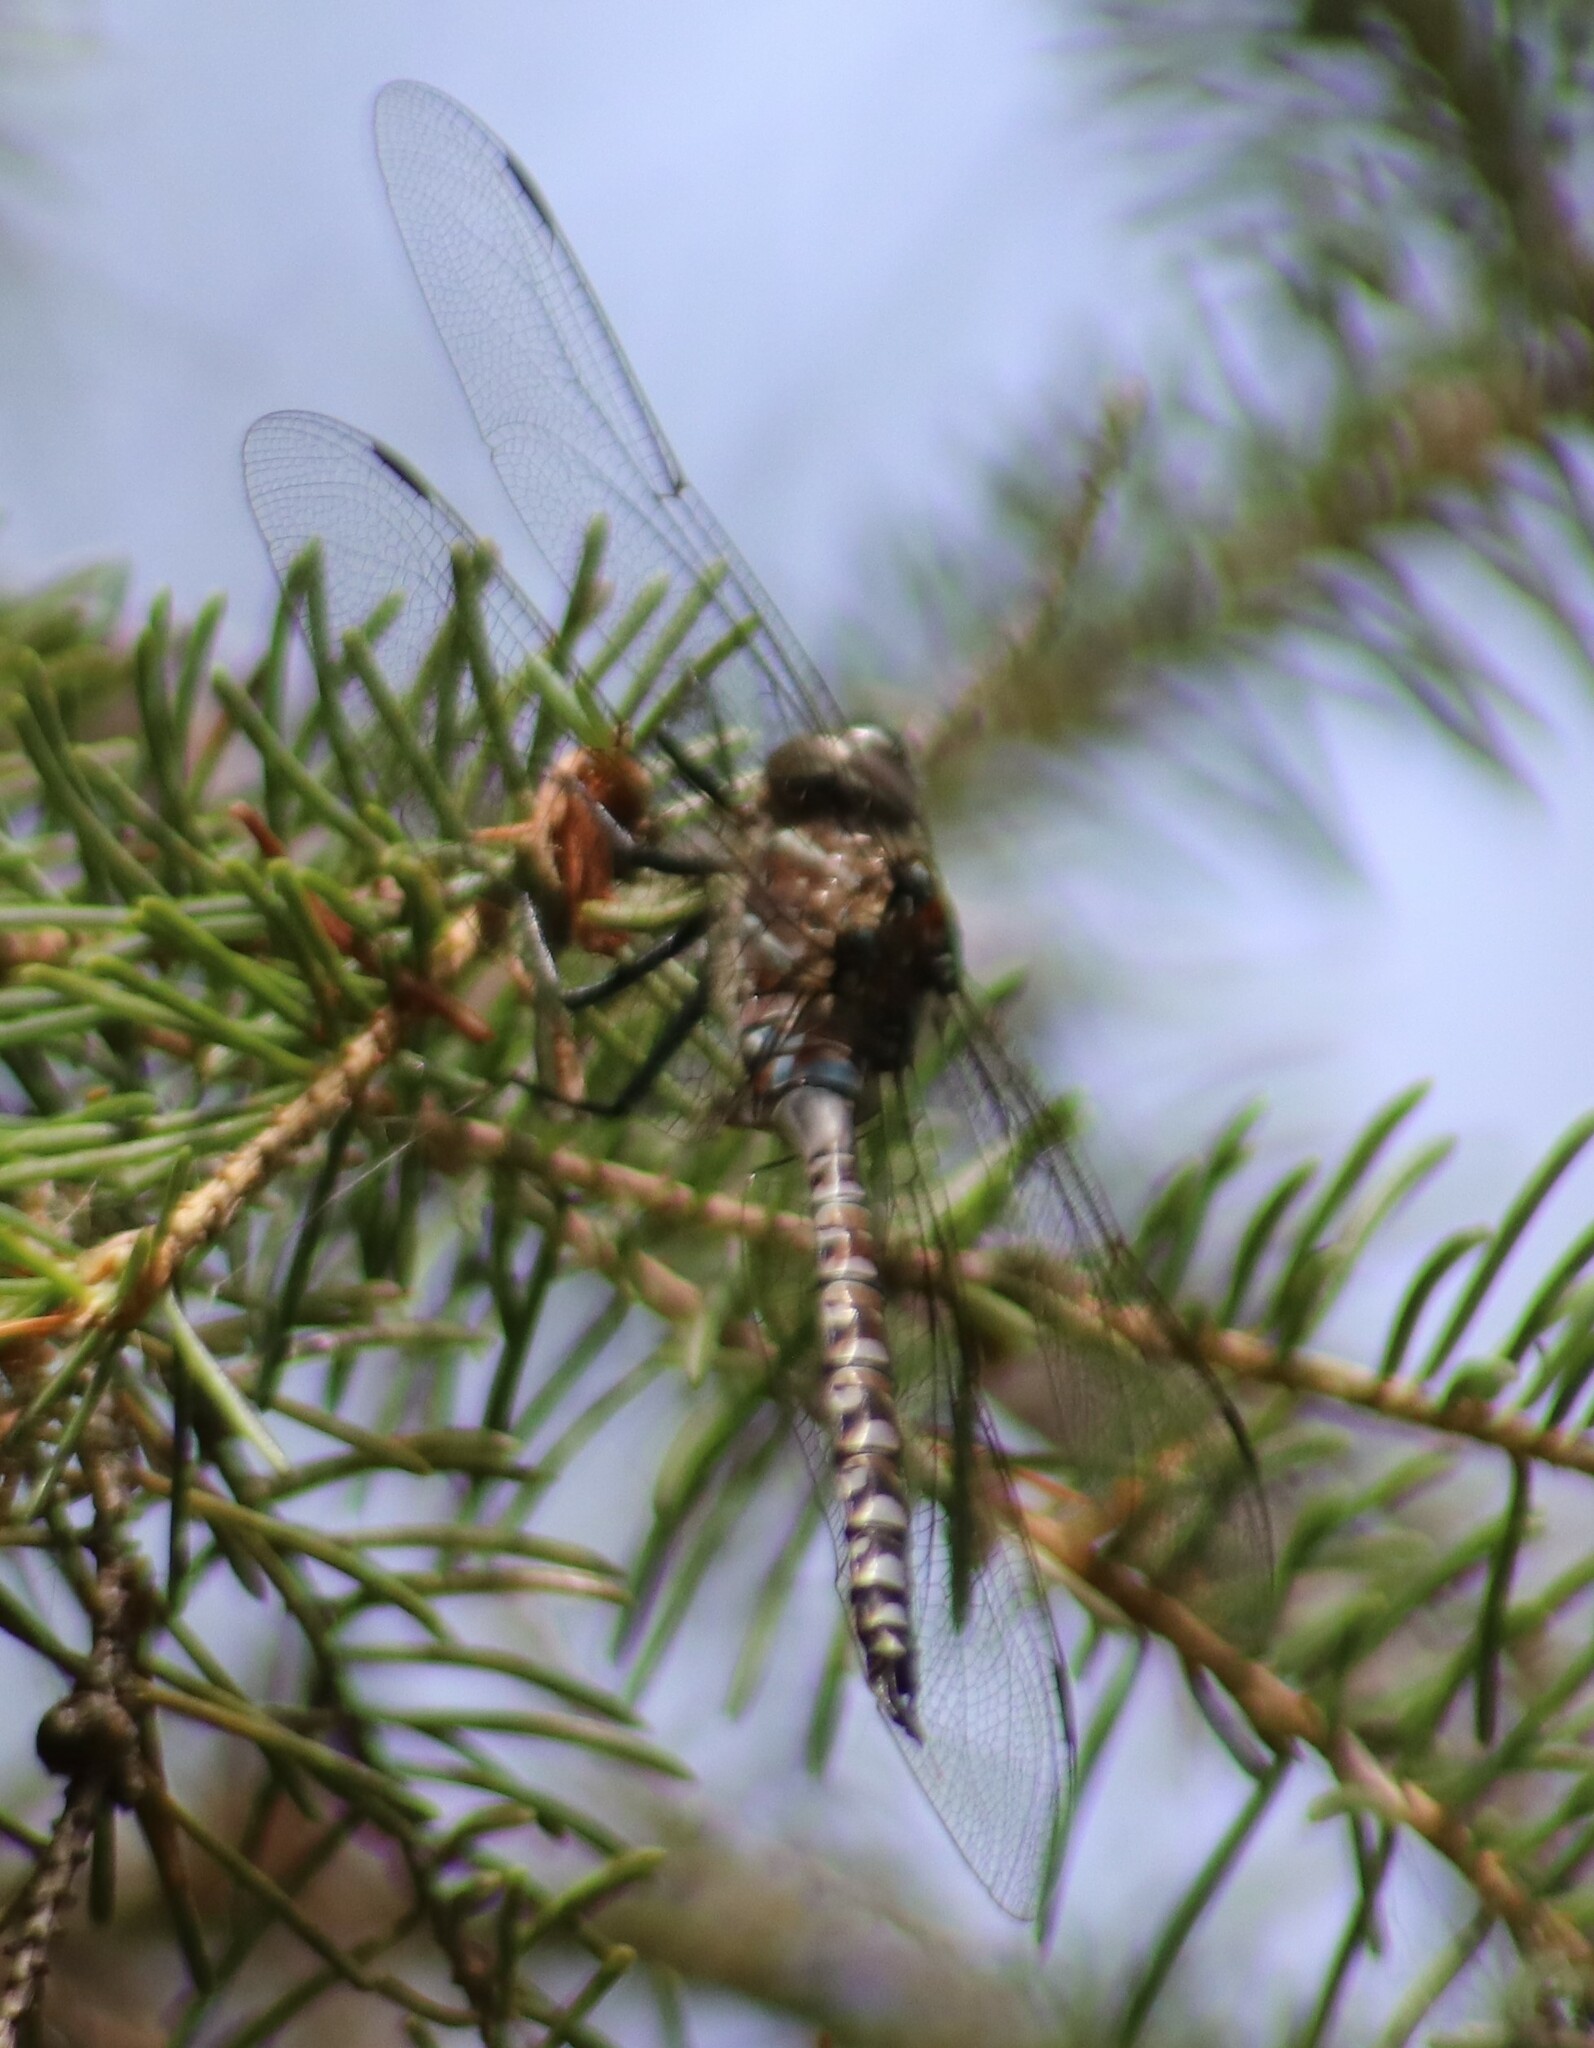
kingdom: Animalia
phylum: Arthropoda
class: Insecta
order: Odonata
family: Aeshnidae
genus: Aeshna
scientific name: Aeshna interrupta
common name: Variable darner
